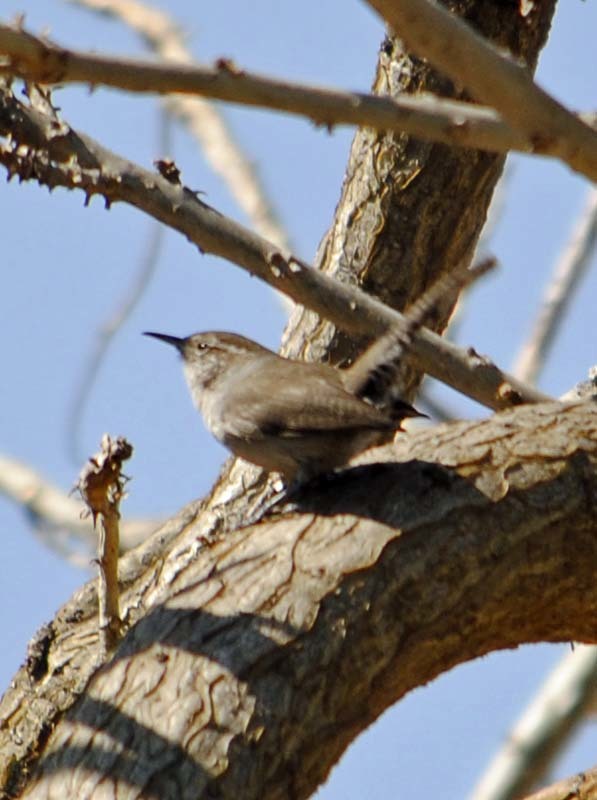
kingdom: Animalia
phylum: Chordata
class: Aves
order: Passeriformes
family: Troglodytidae
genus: Thryomanes
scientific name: Thryomanes bewickii
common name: Bewick's wren
